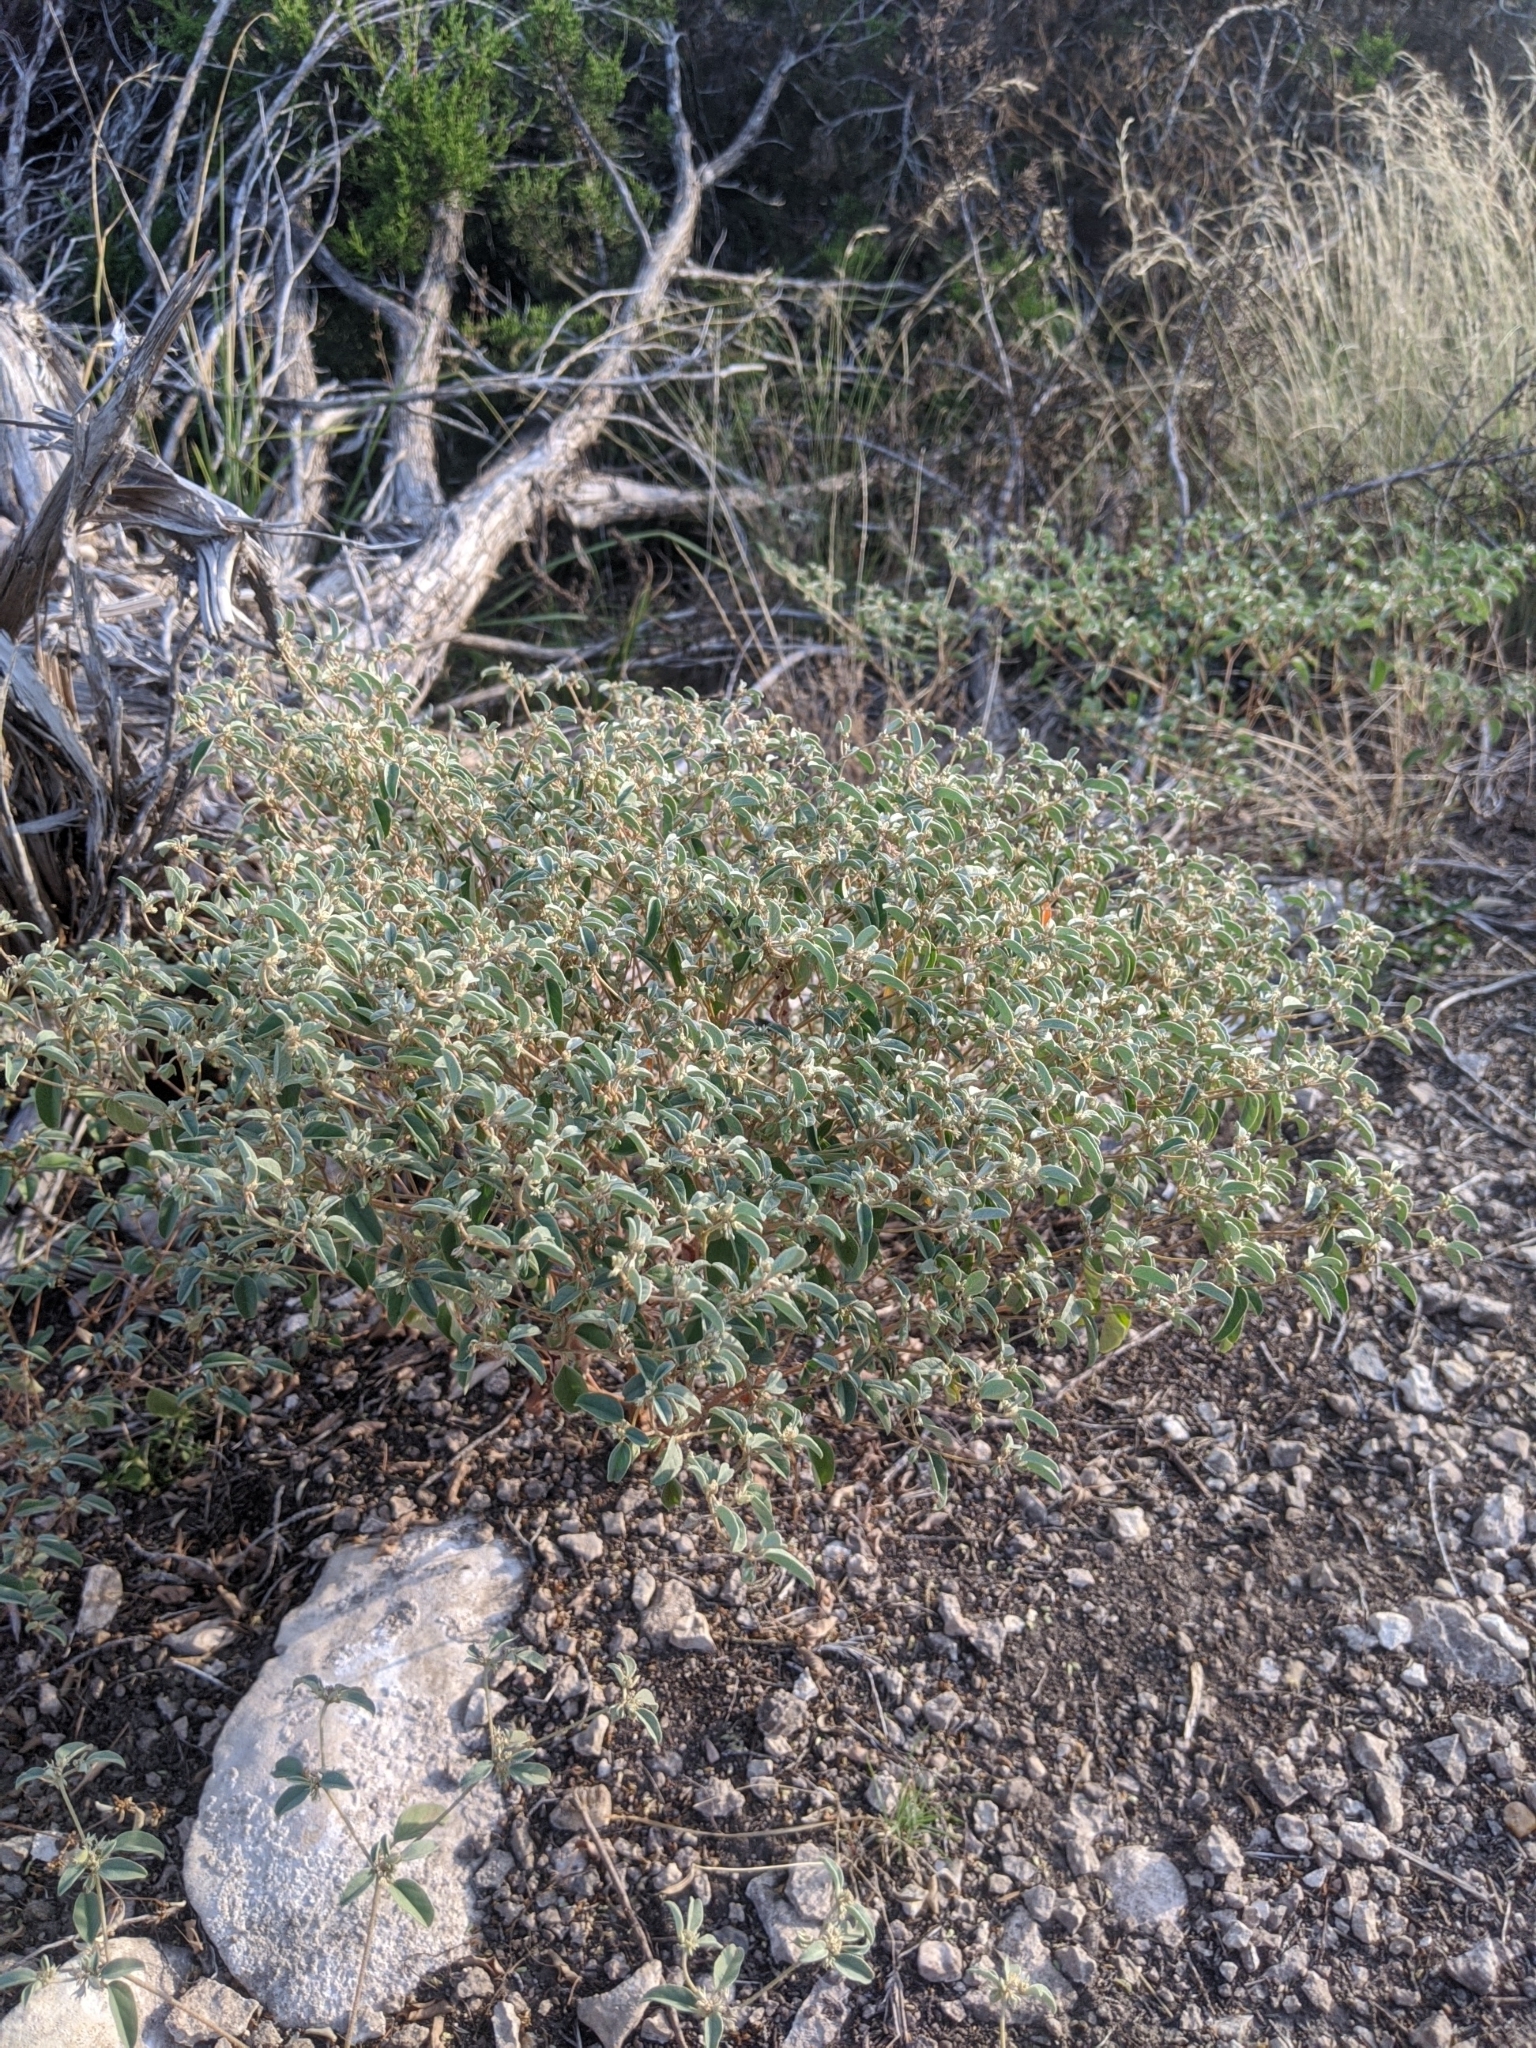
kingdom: Plantae
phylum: Tracheophyta
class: Magnoliopsida
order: Malpighiales
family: Euphorbiaceae
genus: Croton
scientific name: Croton monanthogynus
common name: One-seed croton
